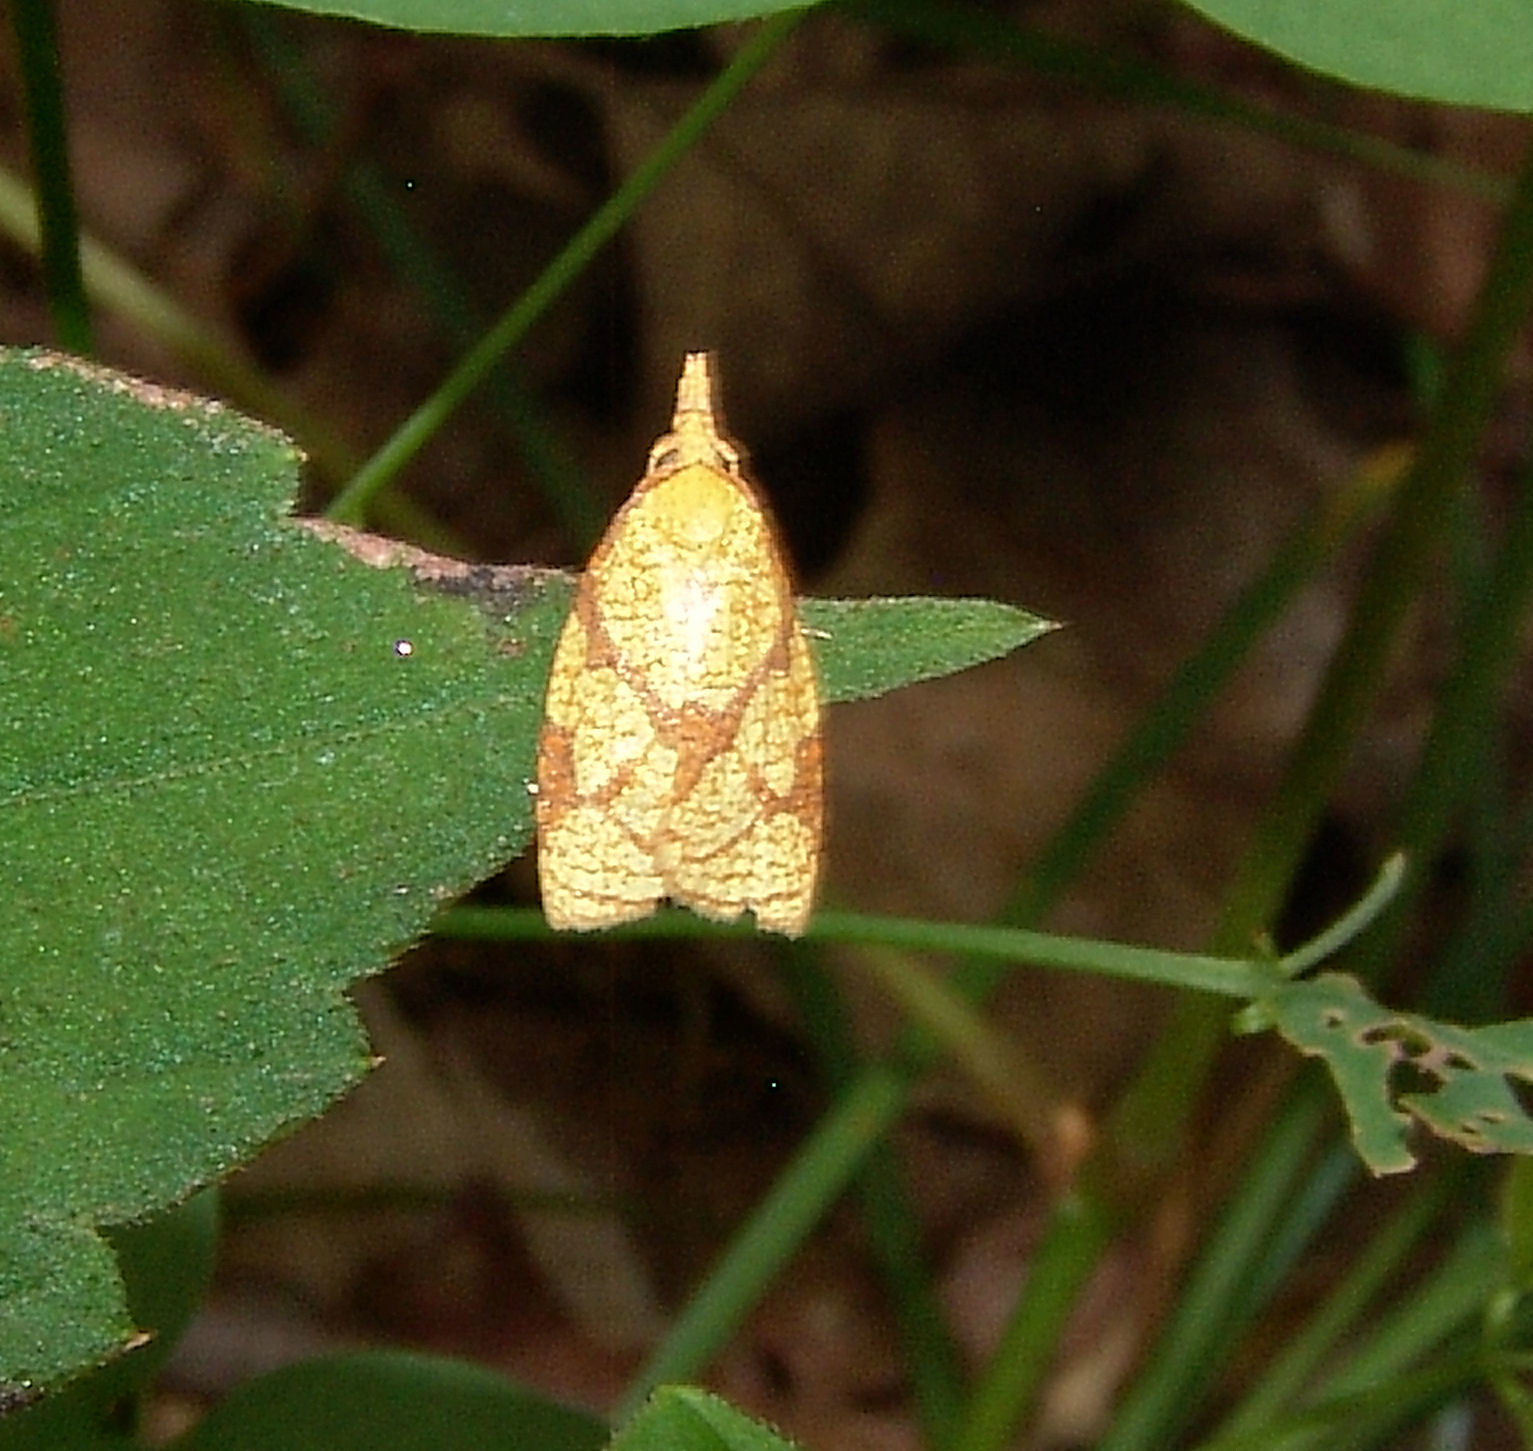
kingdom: Animalia
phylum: Arthropoda
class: Insecta
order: Lepidoptera
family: Tortricidae
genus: Sparganothis
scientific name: Sparganothis sulfureana
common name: Sparganothis fruitworm moth
